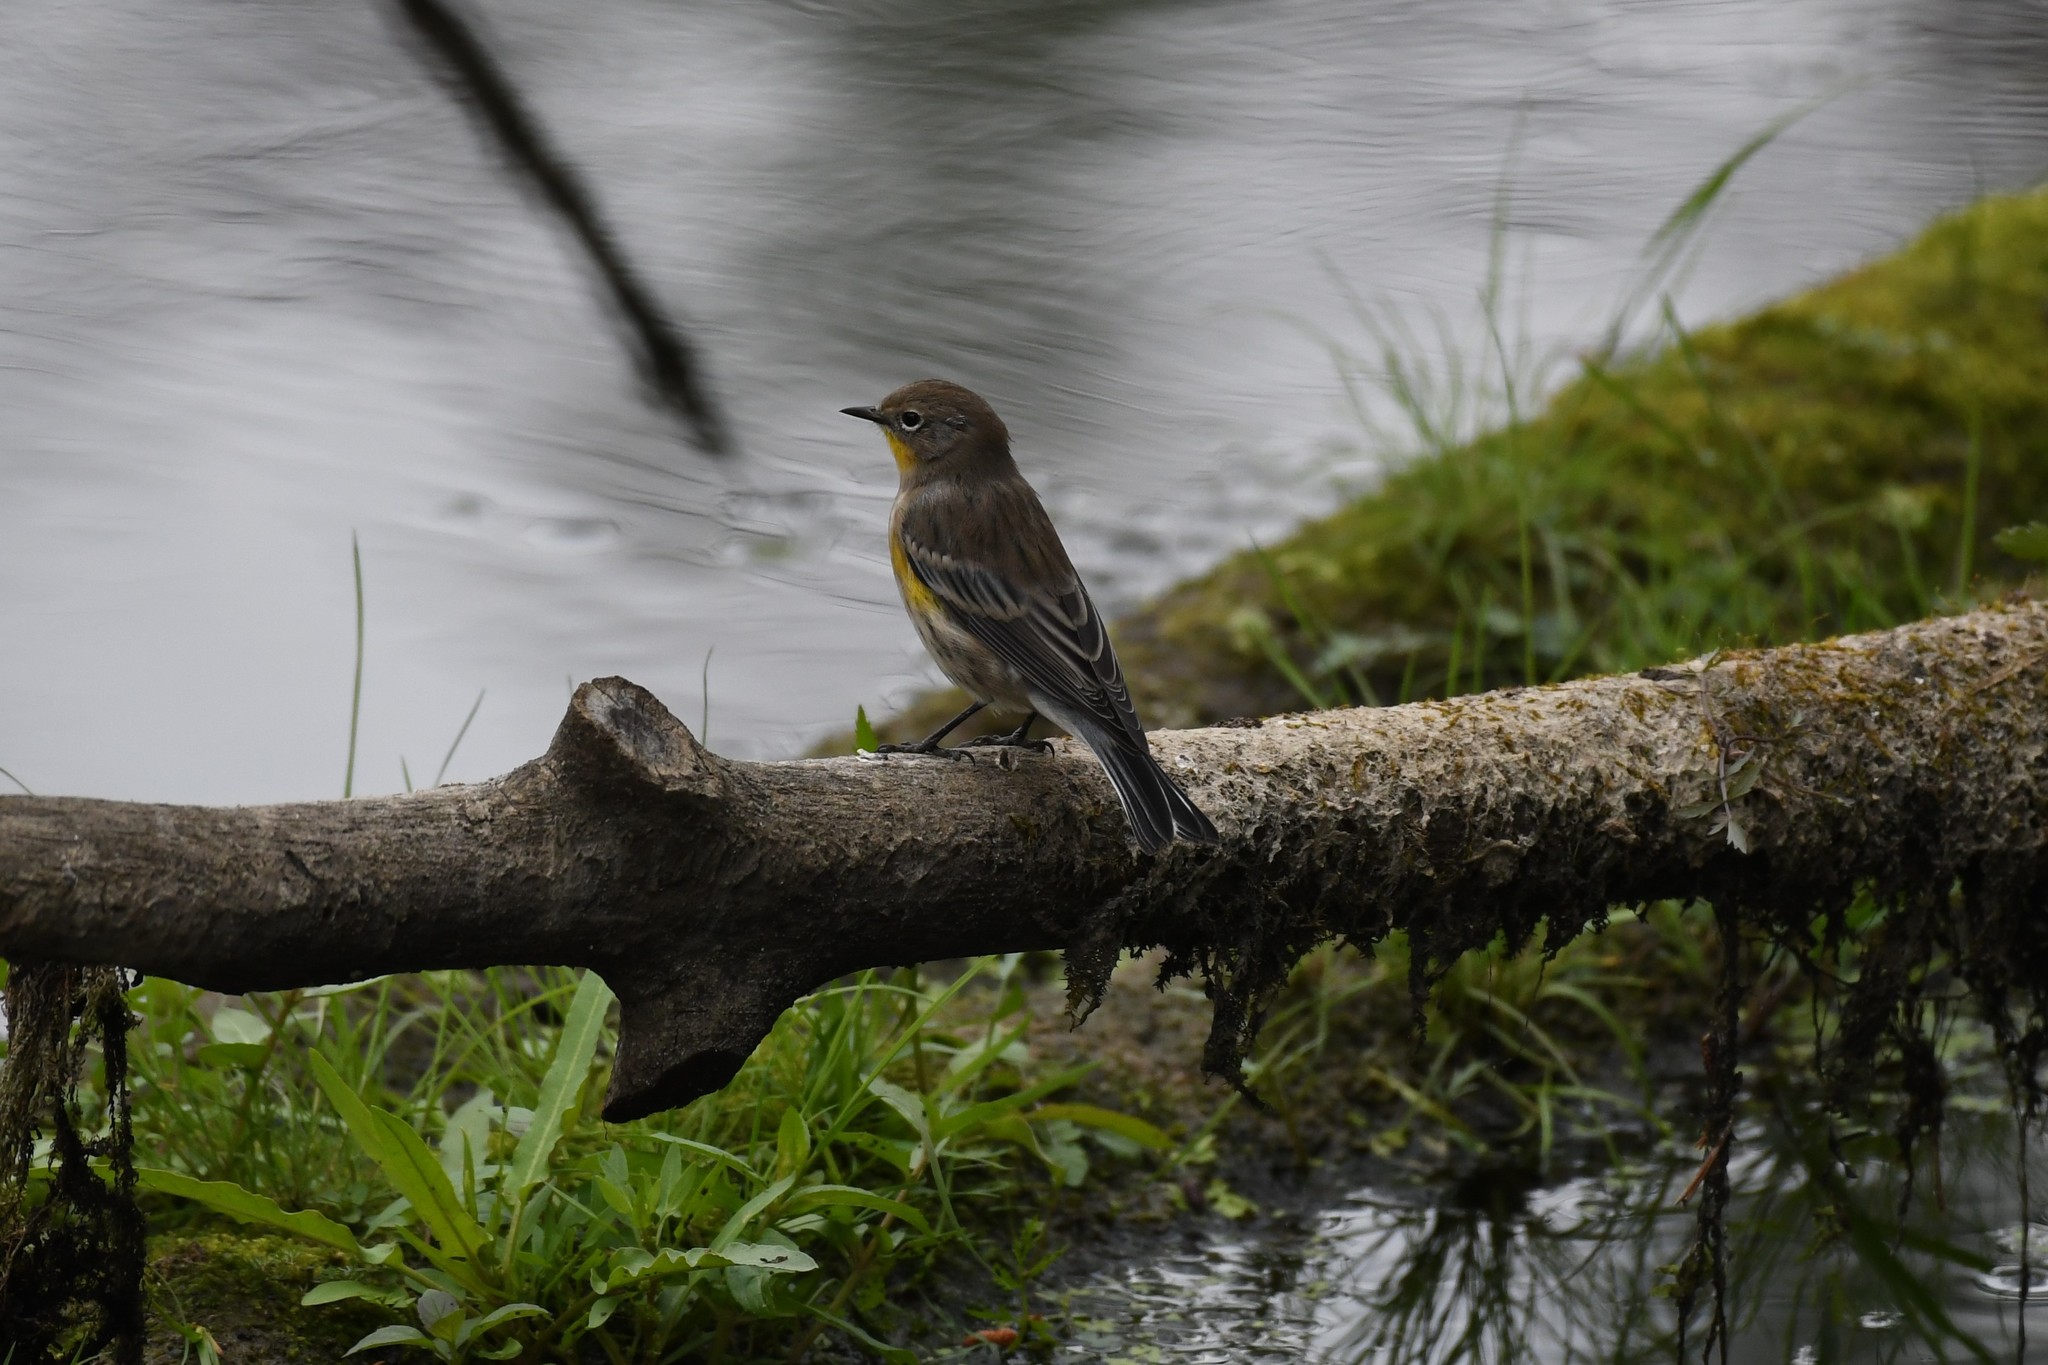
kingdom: Animalia
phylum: Chordata
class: Aves
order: Passeriformes
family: Parulidae
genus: Setophaga
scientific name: Setophaga auduboni
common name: Audubon's warbler
